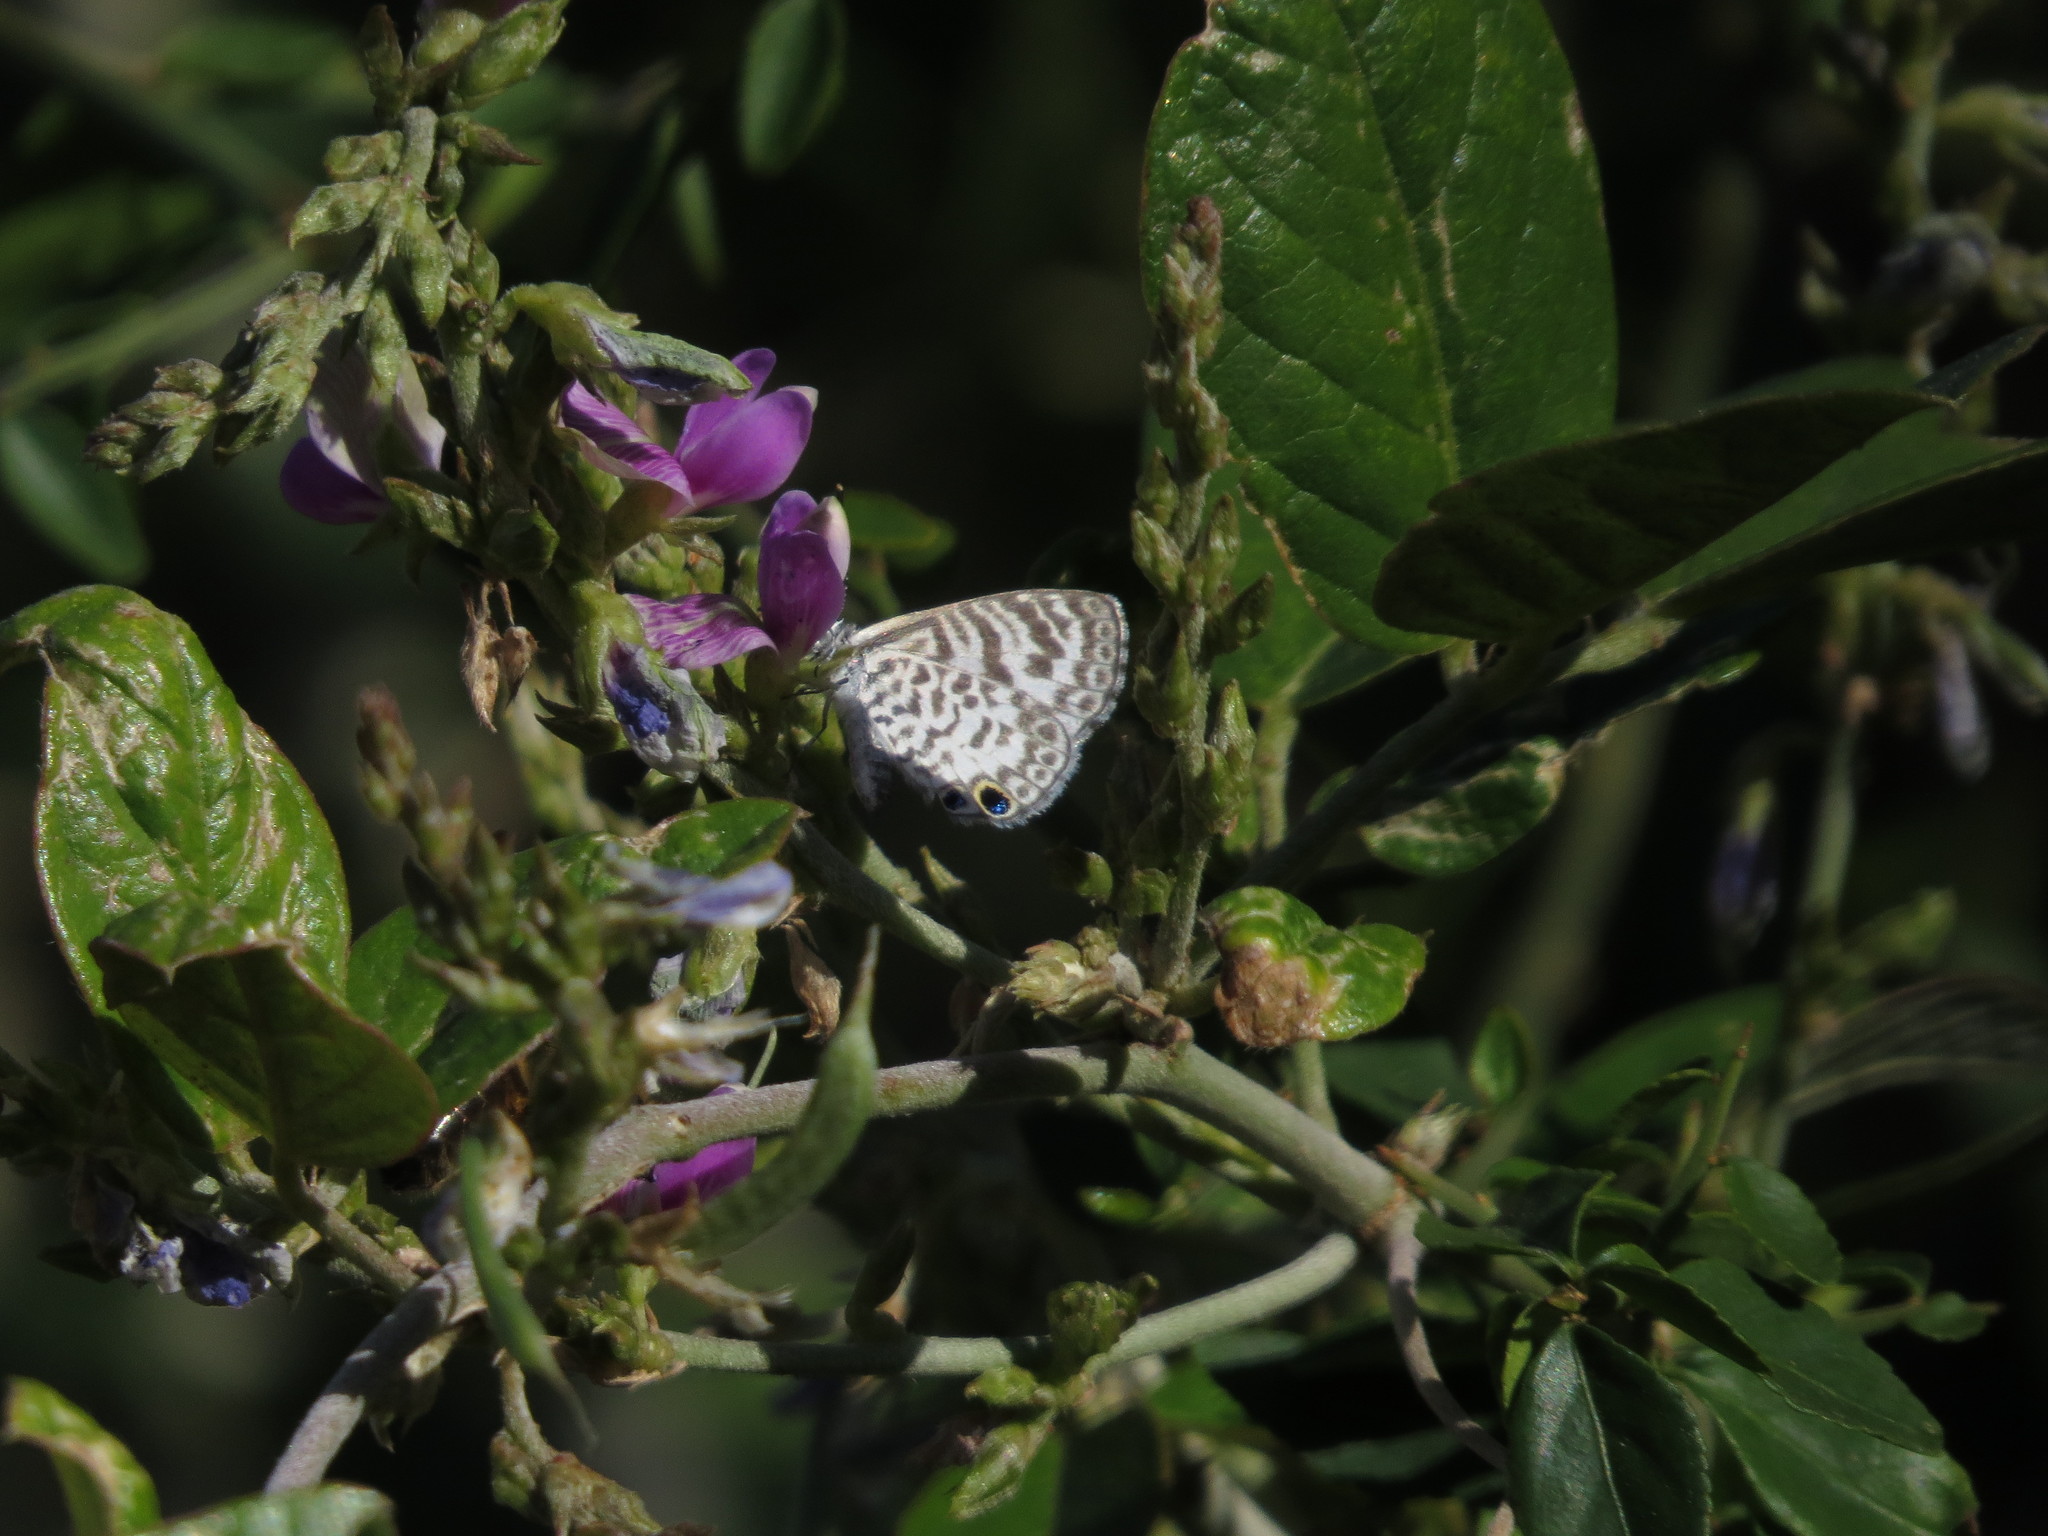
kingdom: Animalia
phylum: Arthropoda
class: Insecta
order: Lepidoptera
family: Lycaenidae
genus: Leptotes
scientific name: Leptotes cassius
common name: Cassius blue
